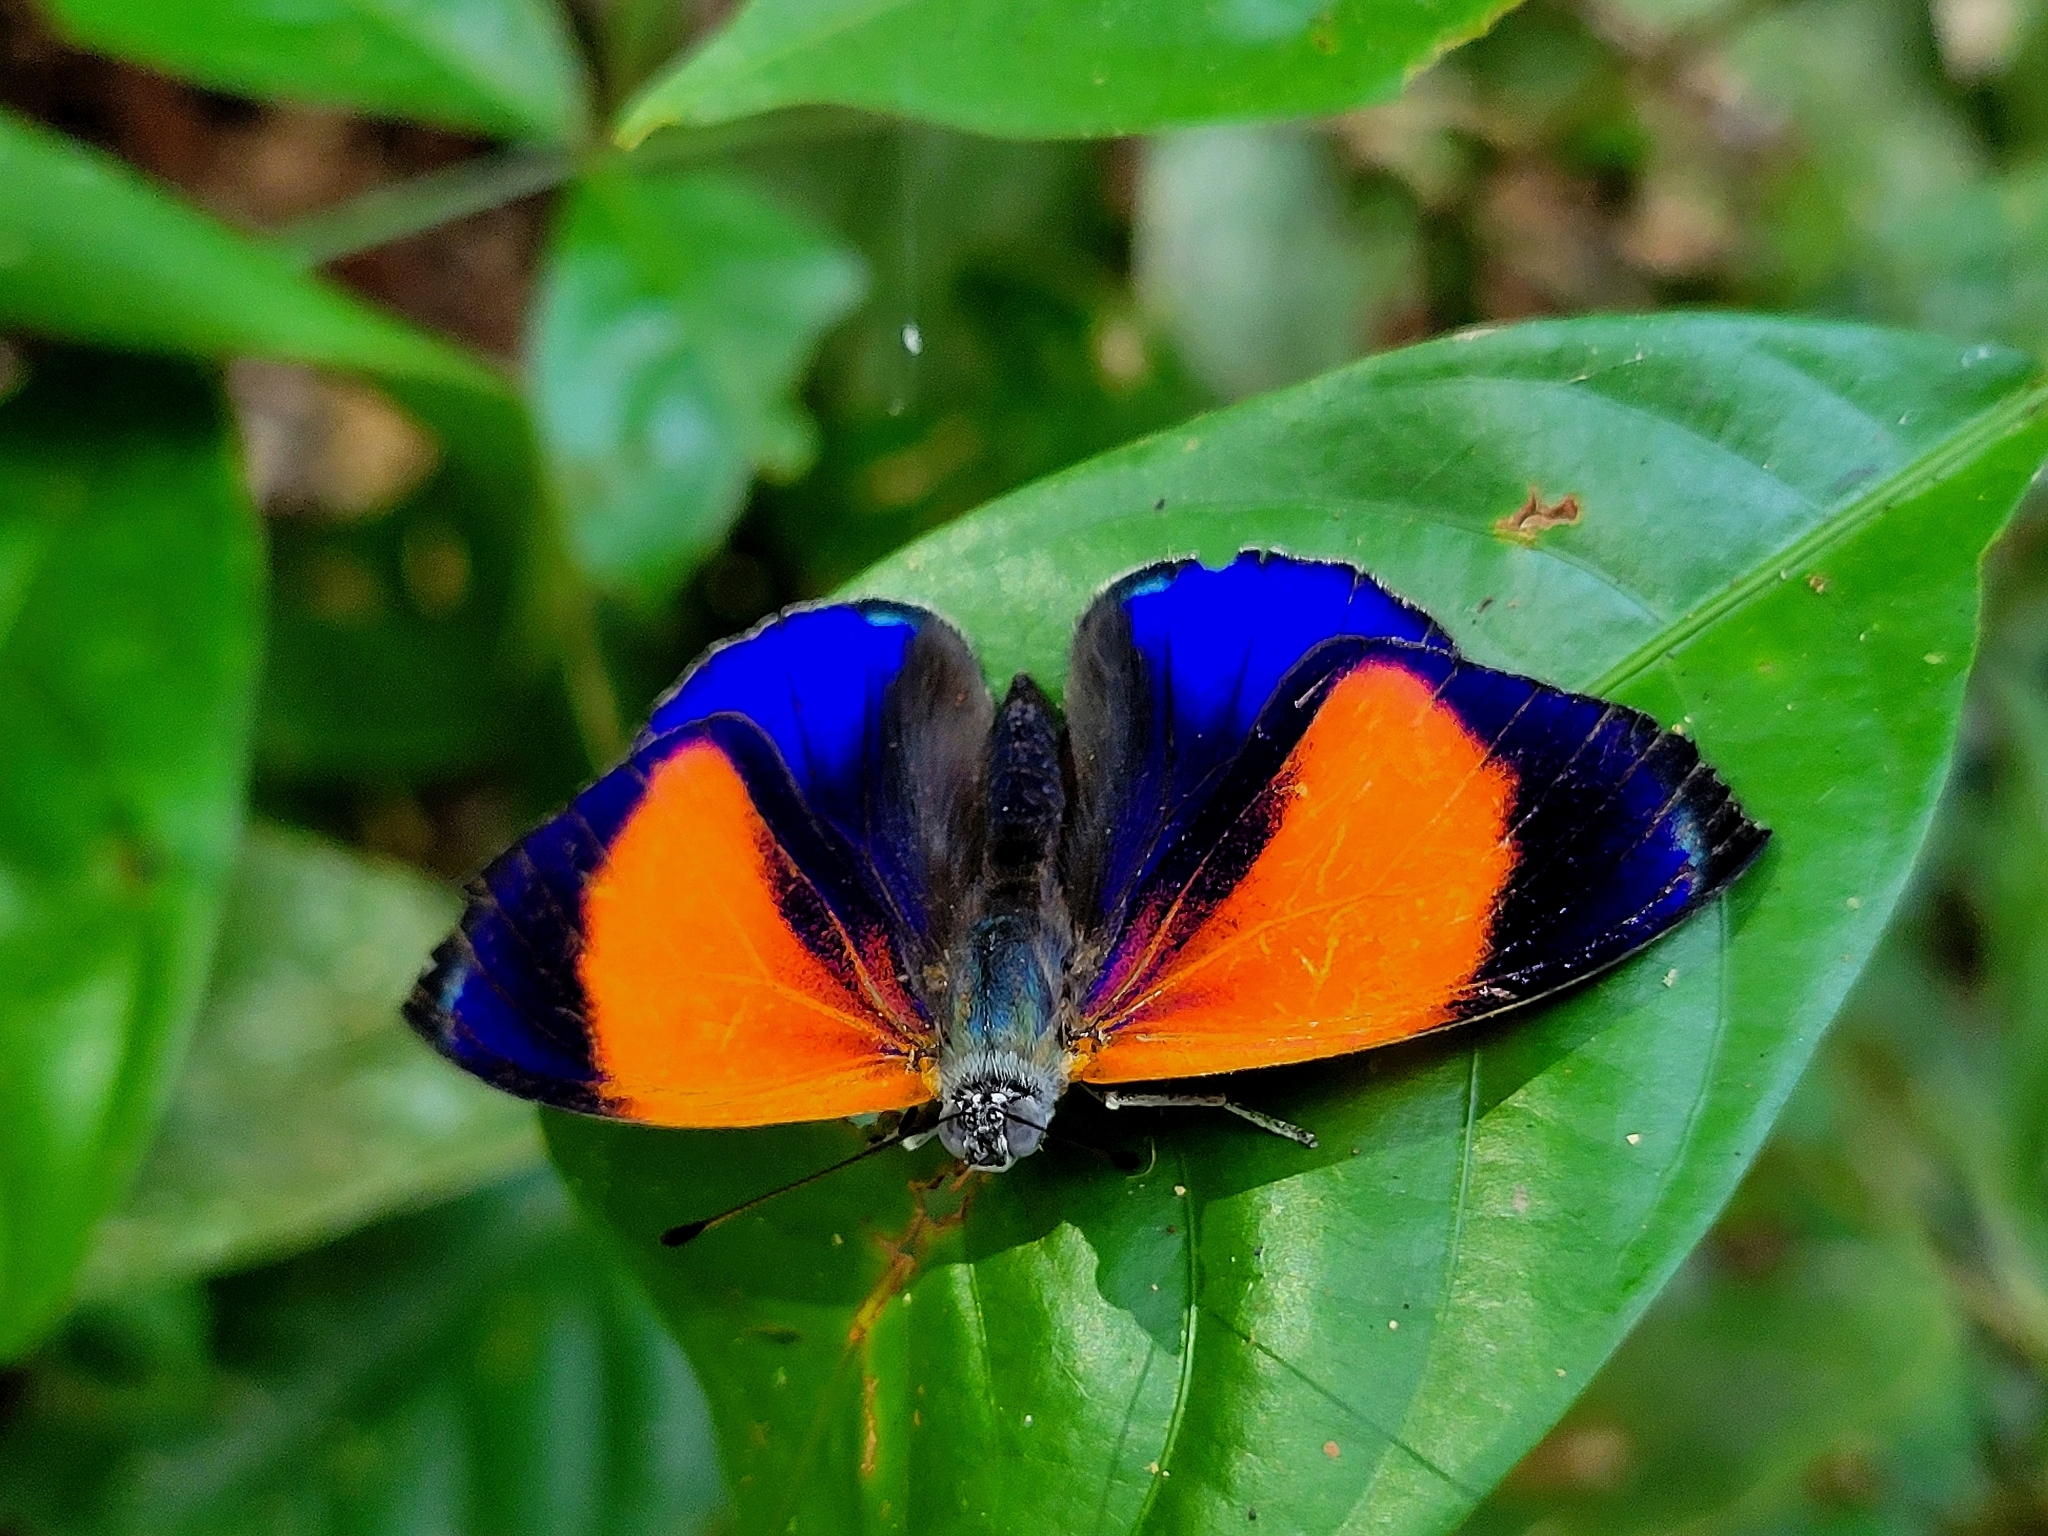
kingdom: Animalia
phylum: Arthropoda
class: Insecta
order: Lepidoptera
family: Nymphalidae
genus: Callithea
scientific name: Callithea markii
